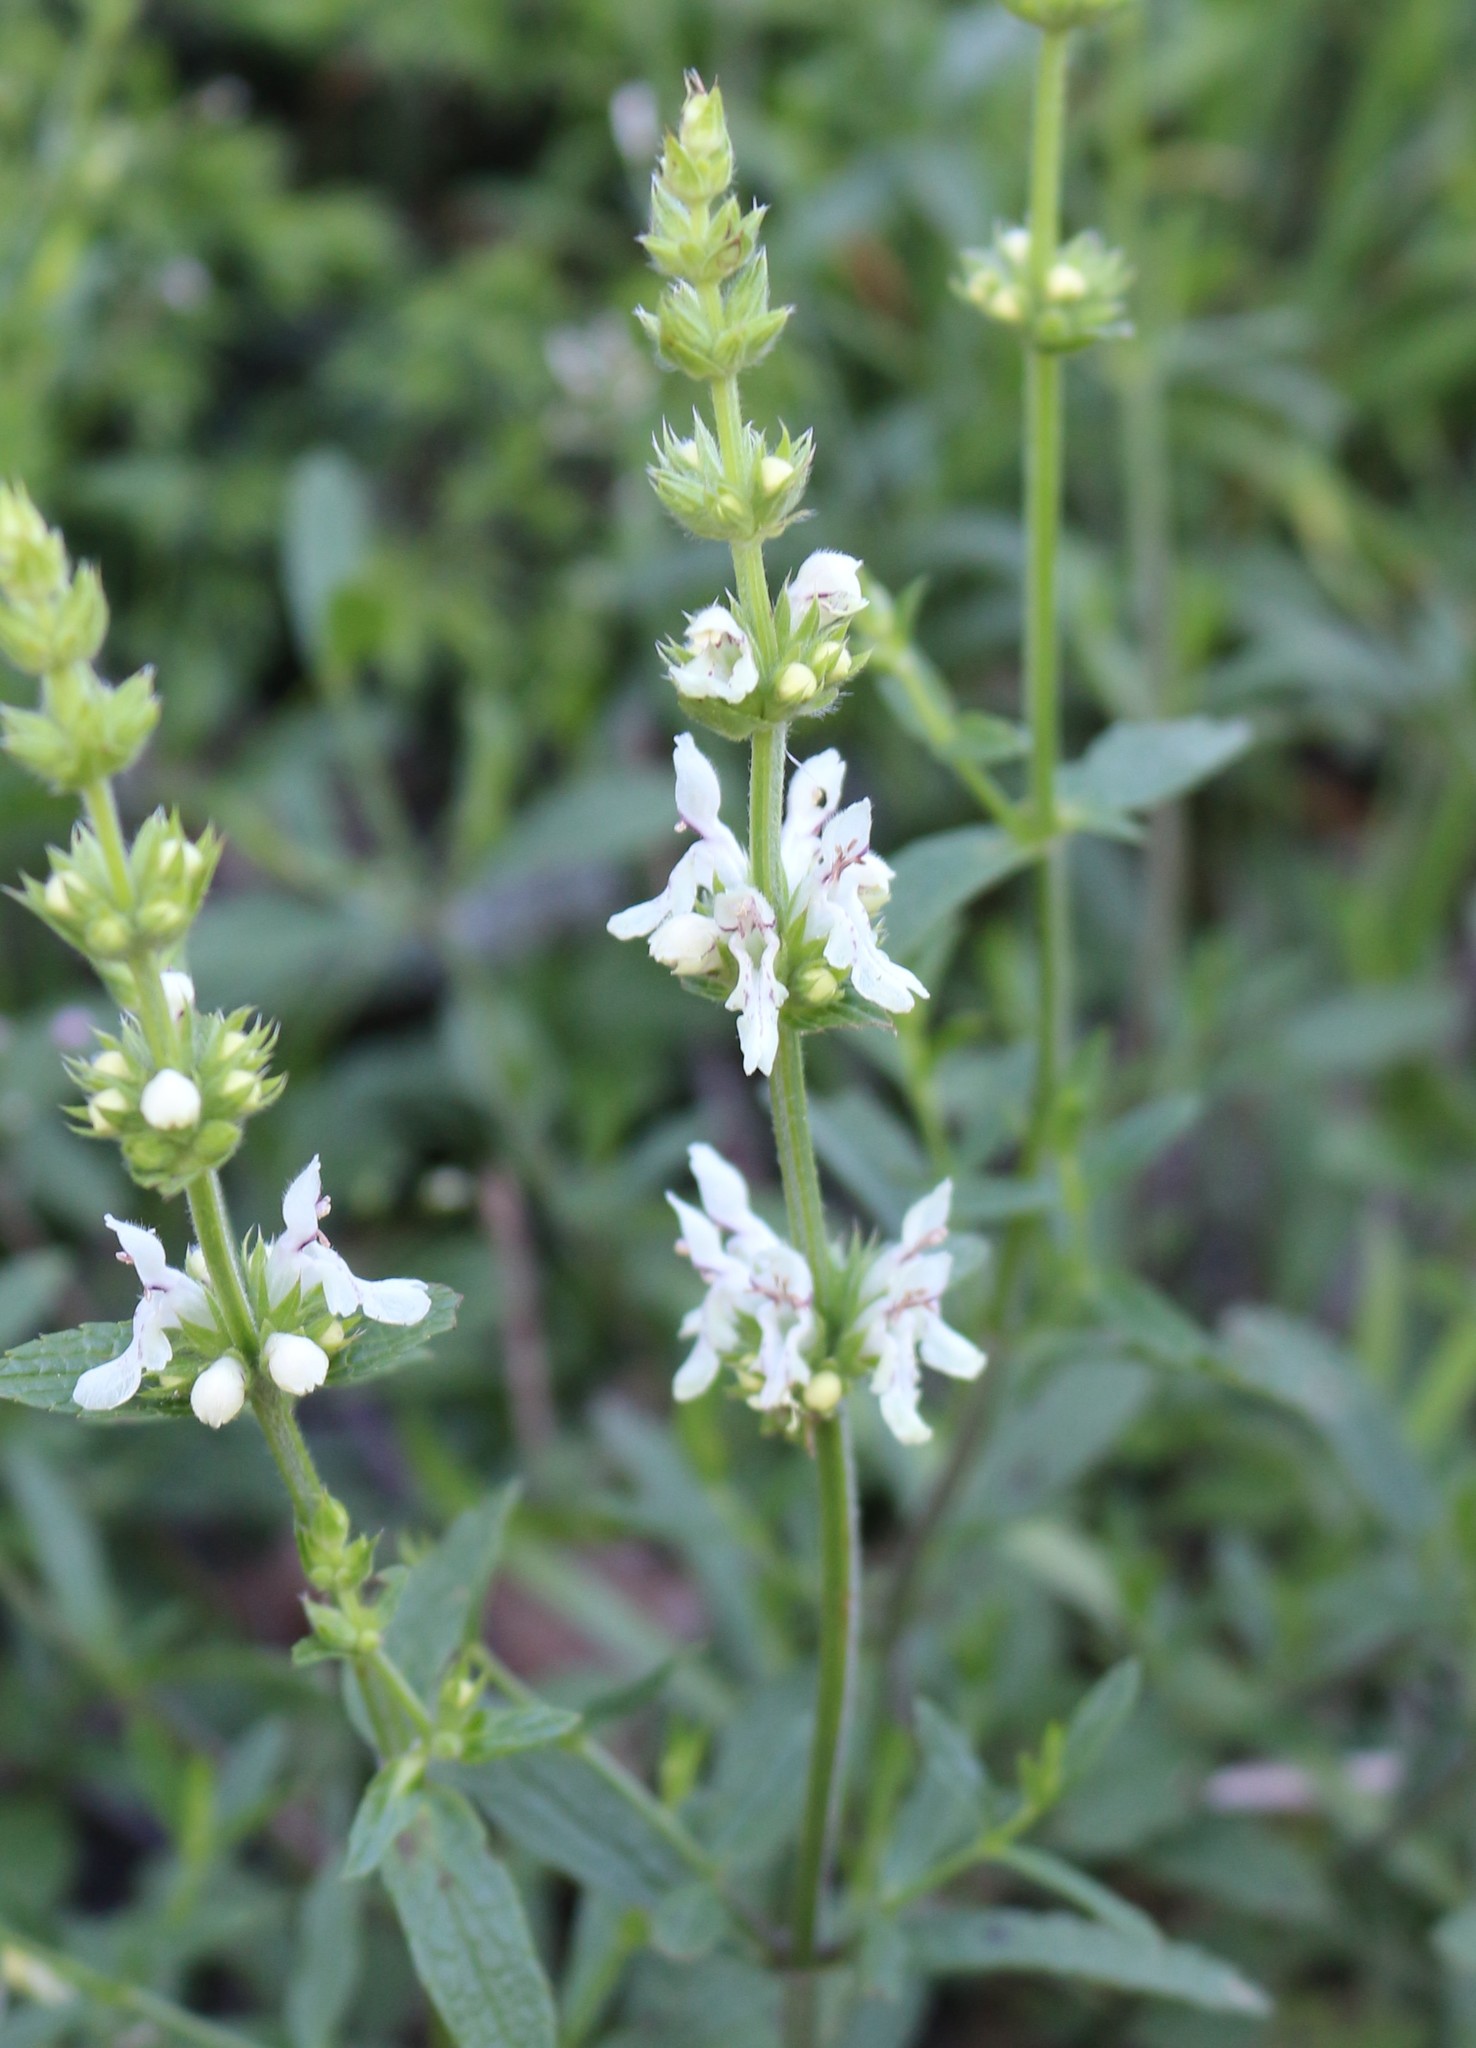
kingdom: Plantae
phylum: Tracheophyta
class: Magnoliopsida
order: Lamiales
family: Lamiaceae
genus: Stachys
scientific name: Stachys atherocalyx
